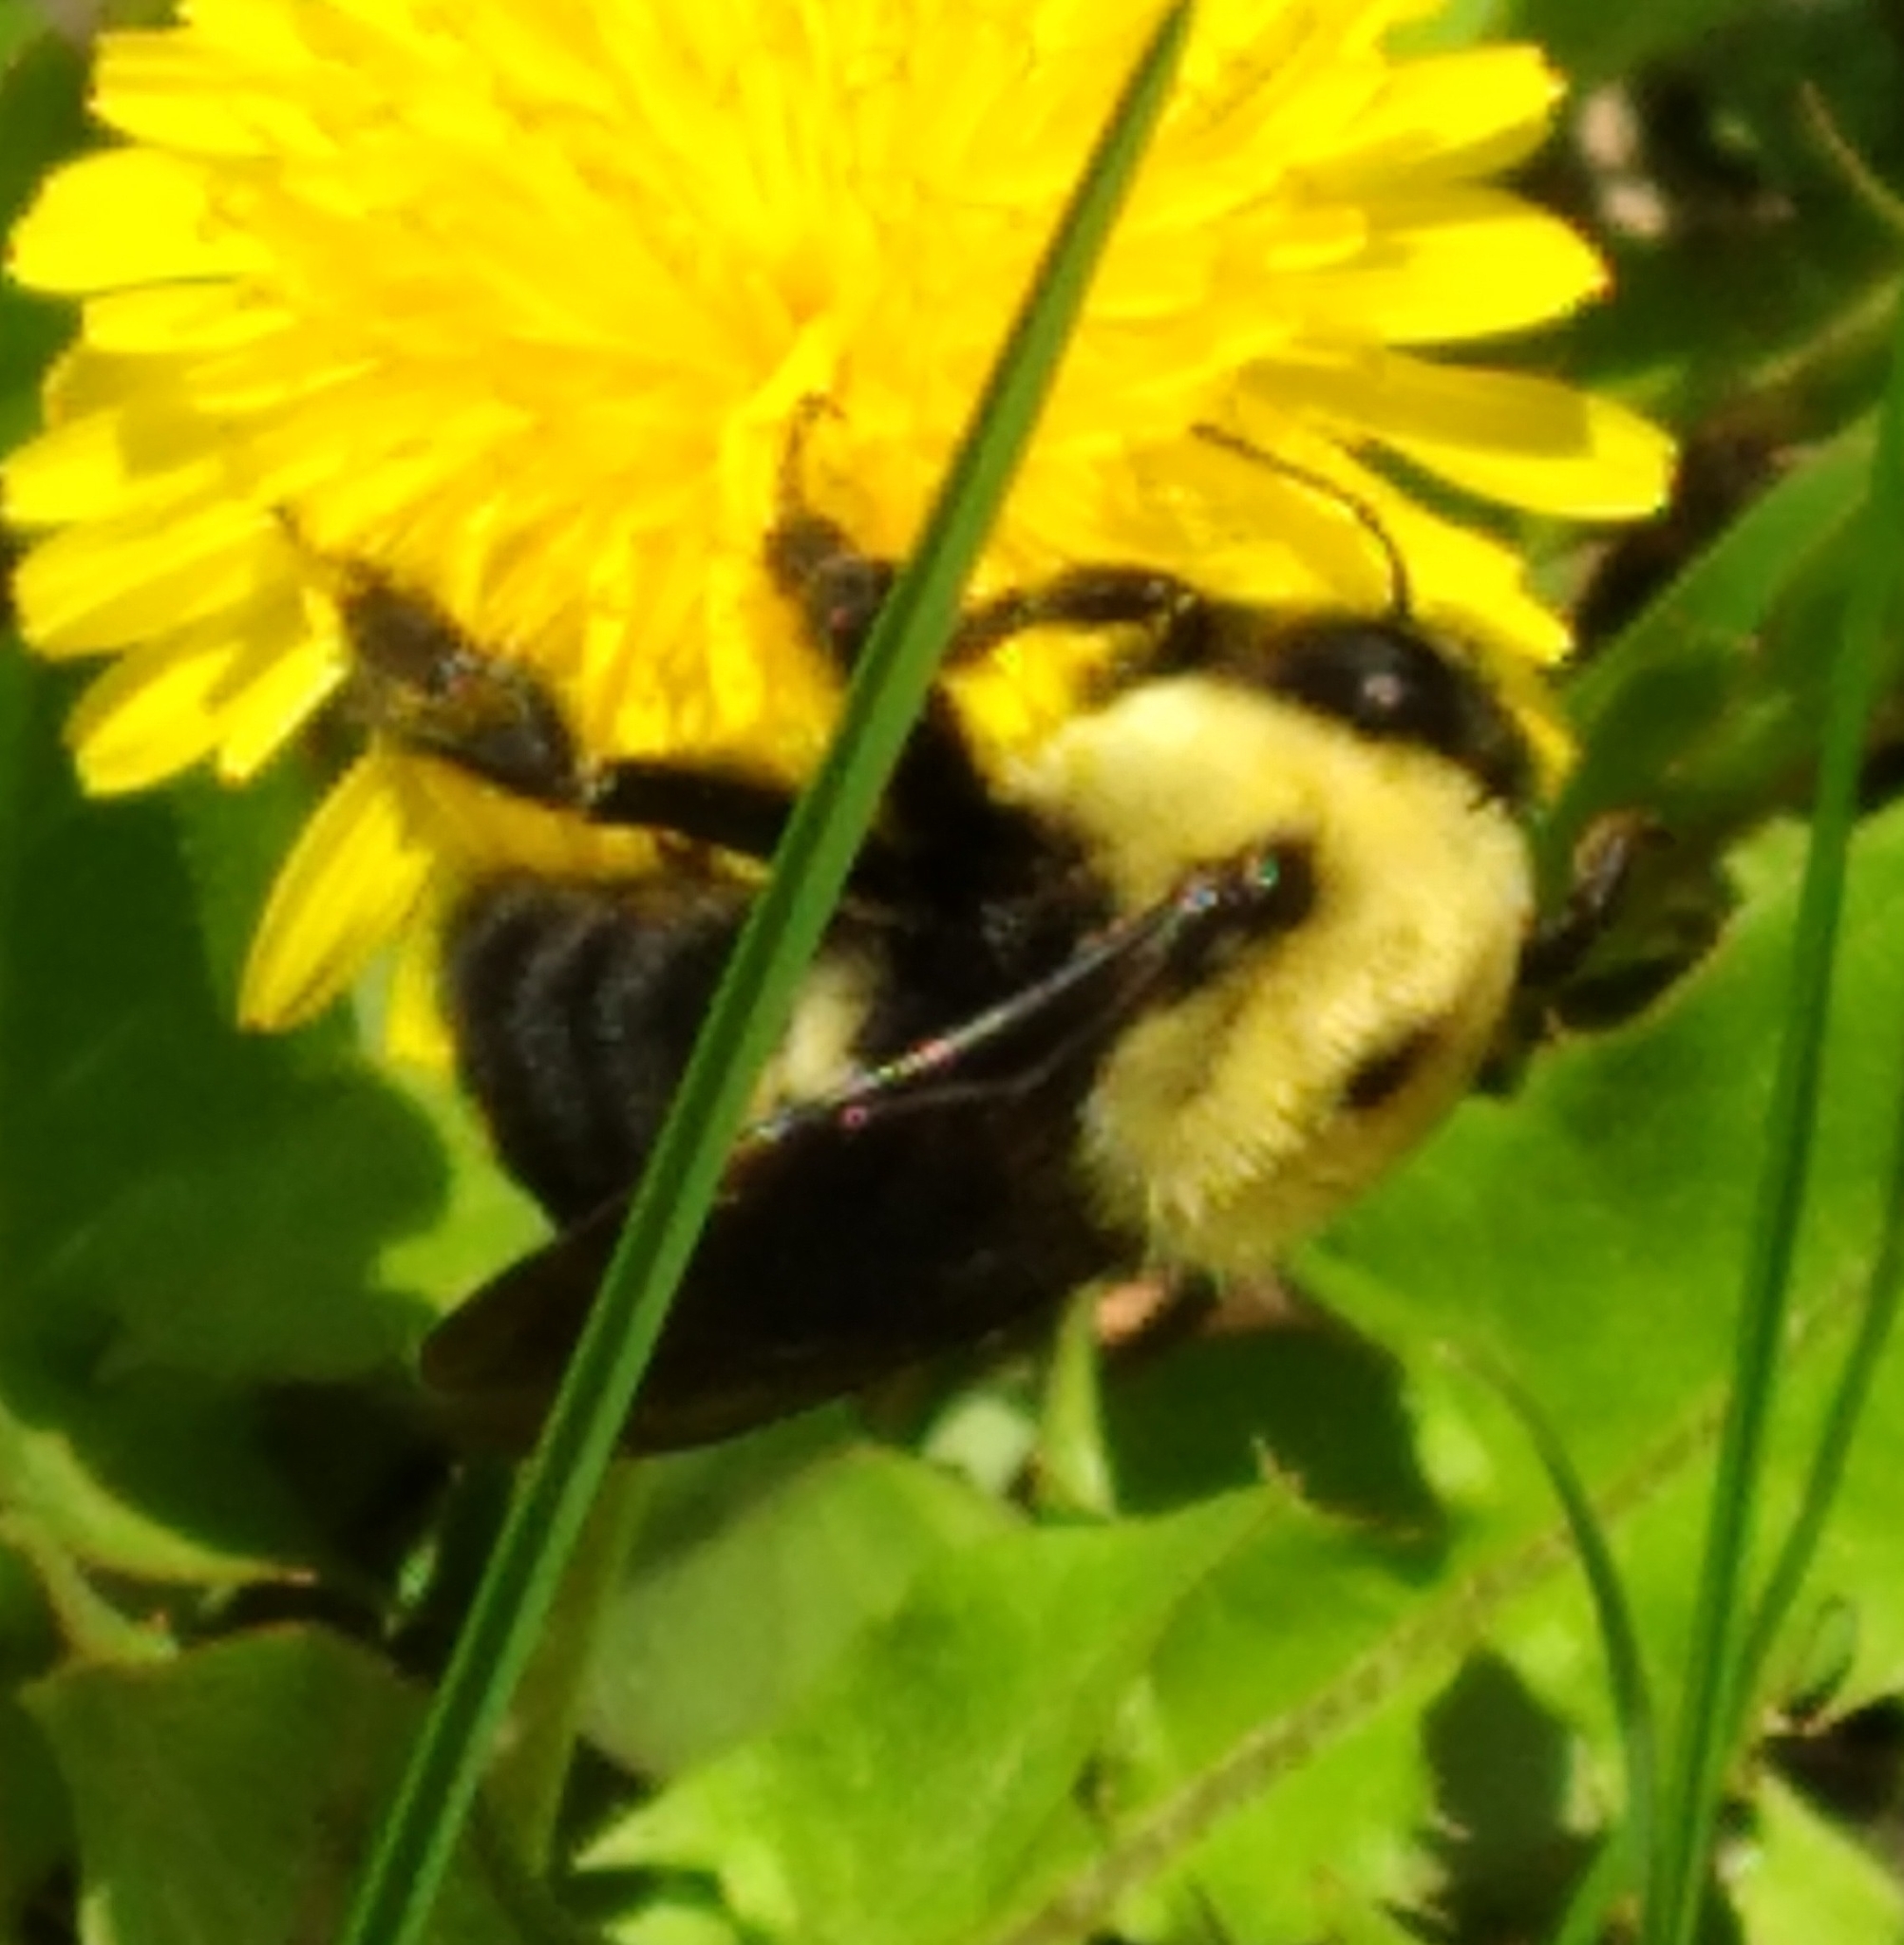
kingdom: Animalia
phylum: Arthropoda
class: Insecta
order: Hymenoptera
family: Apidae
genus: Bombus
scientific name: Bombus griseocollis
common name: Brown-belted bumble bee
